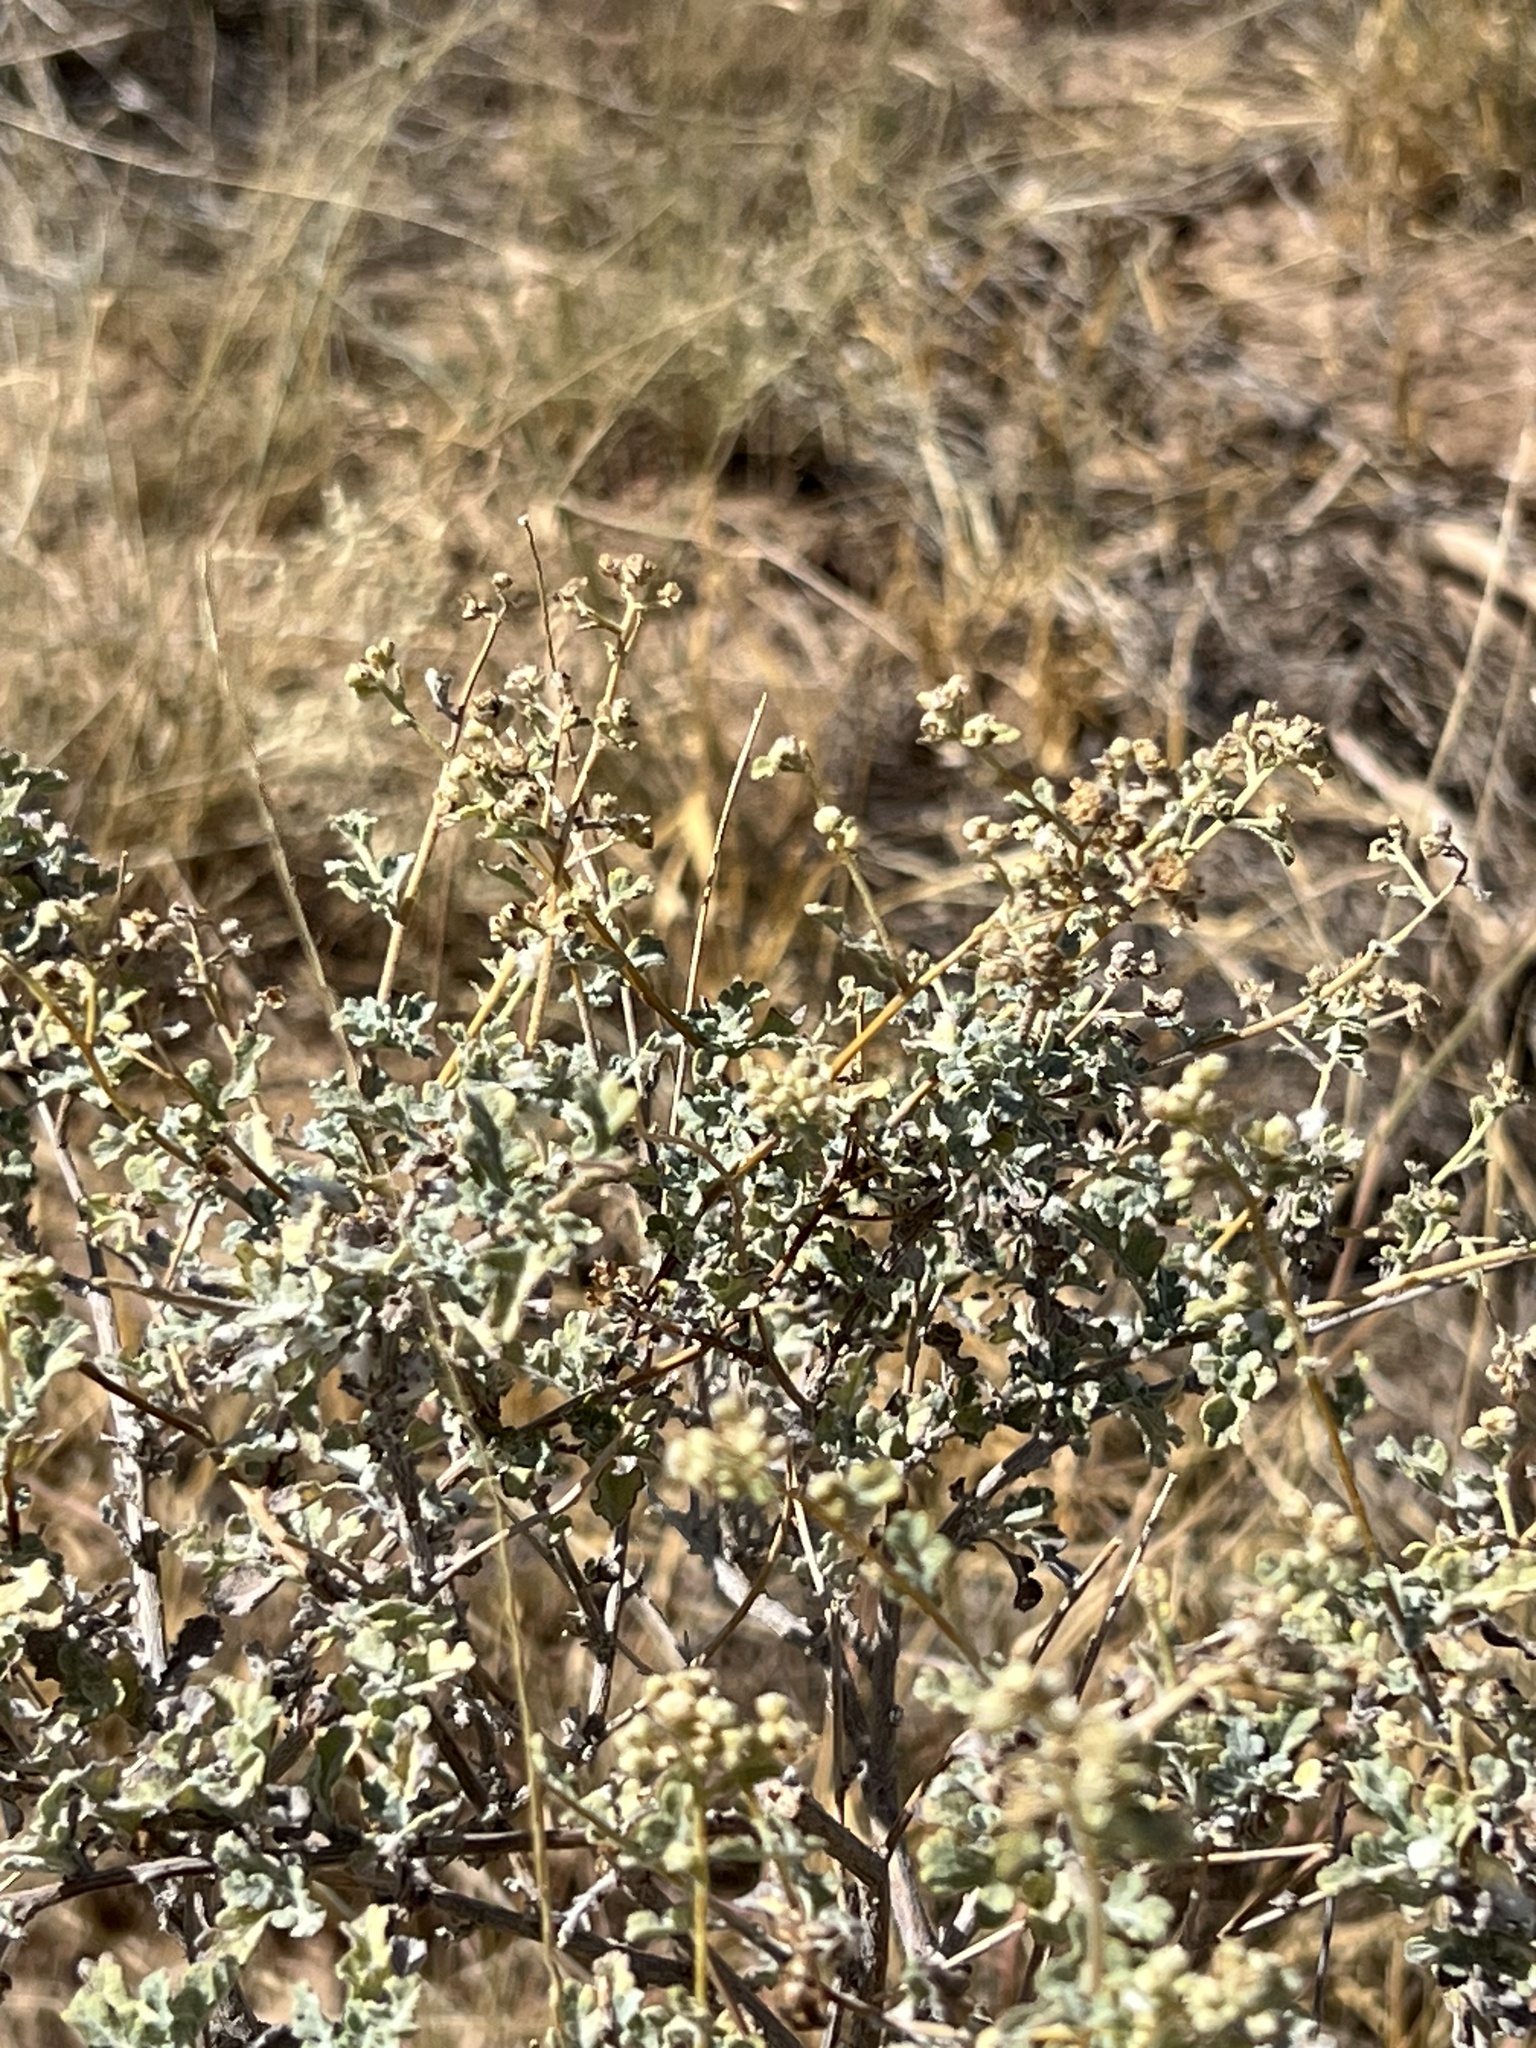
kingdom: Plantae
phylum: Tracheophyta
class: Magnoliopsida
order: Asterales
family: Asteraceae
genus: Parthenium
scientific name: Parthenium incanum
